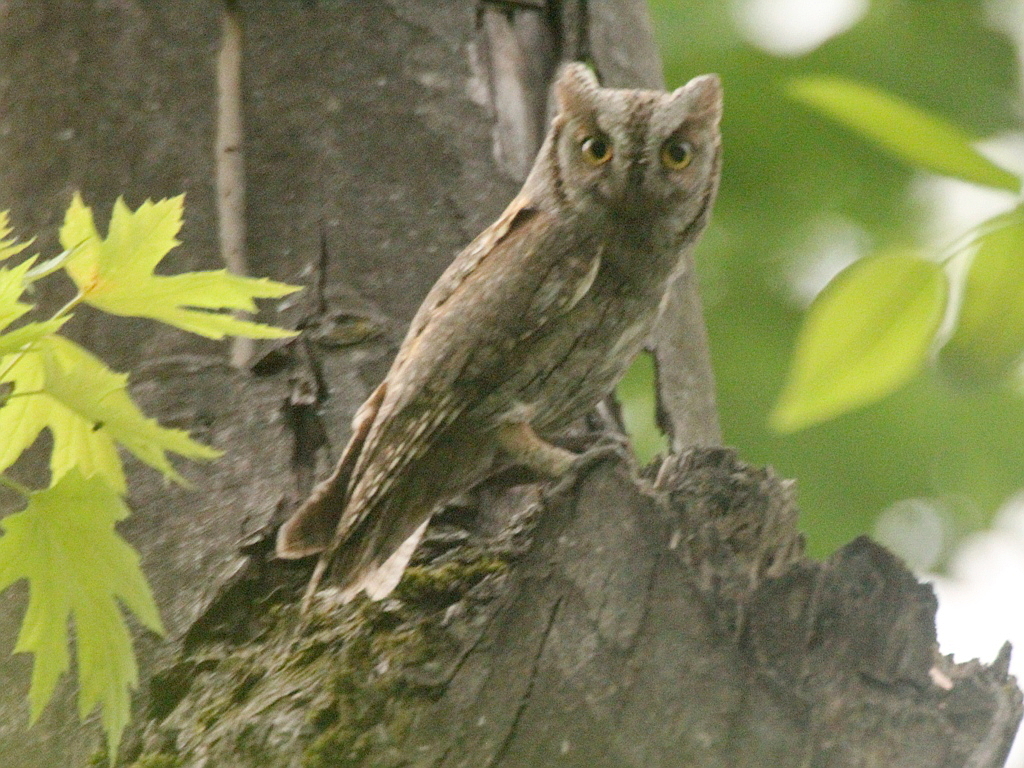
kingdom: Animalia
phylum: Chordata
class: Aves
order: Strigiformes
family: Strigidae
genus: Otus
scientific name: Otus scops
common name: Eurasian scops owl
